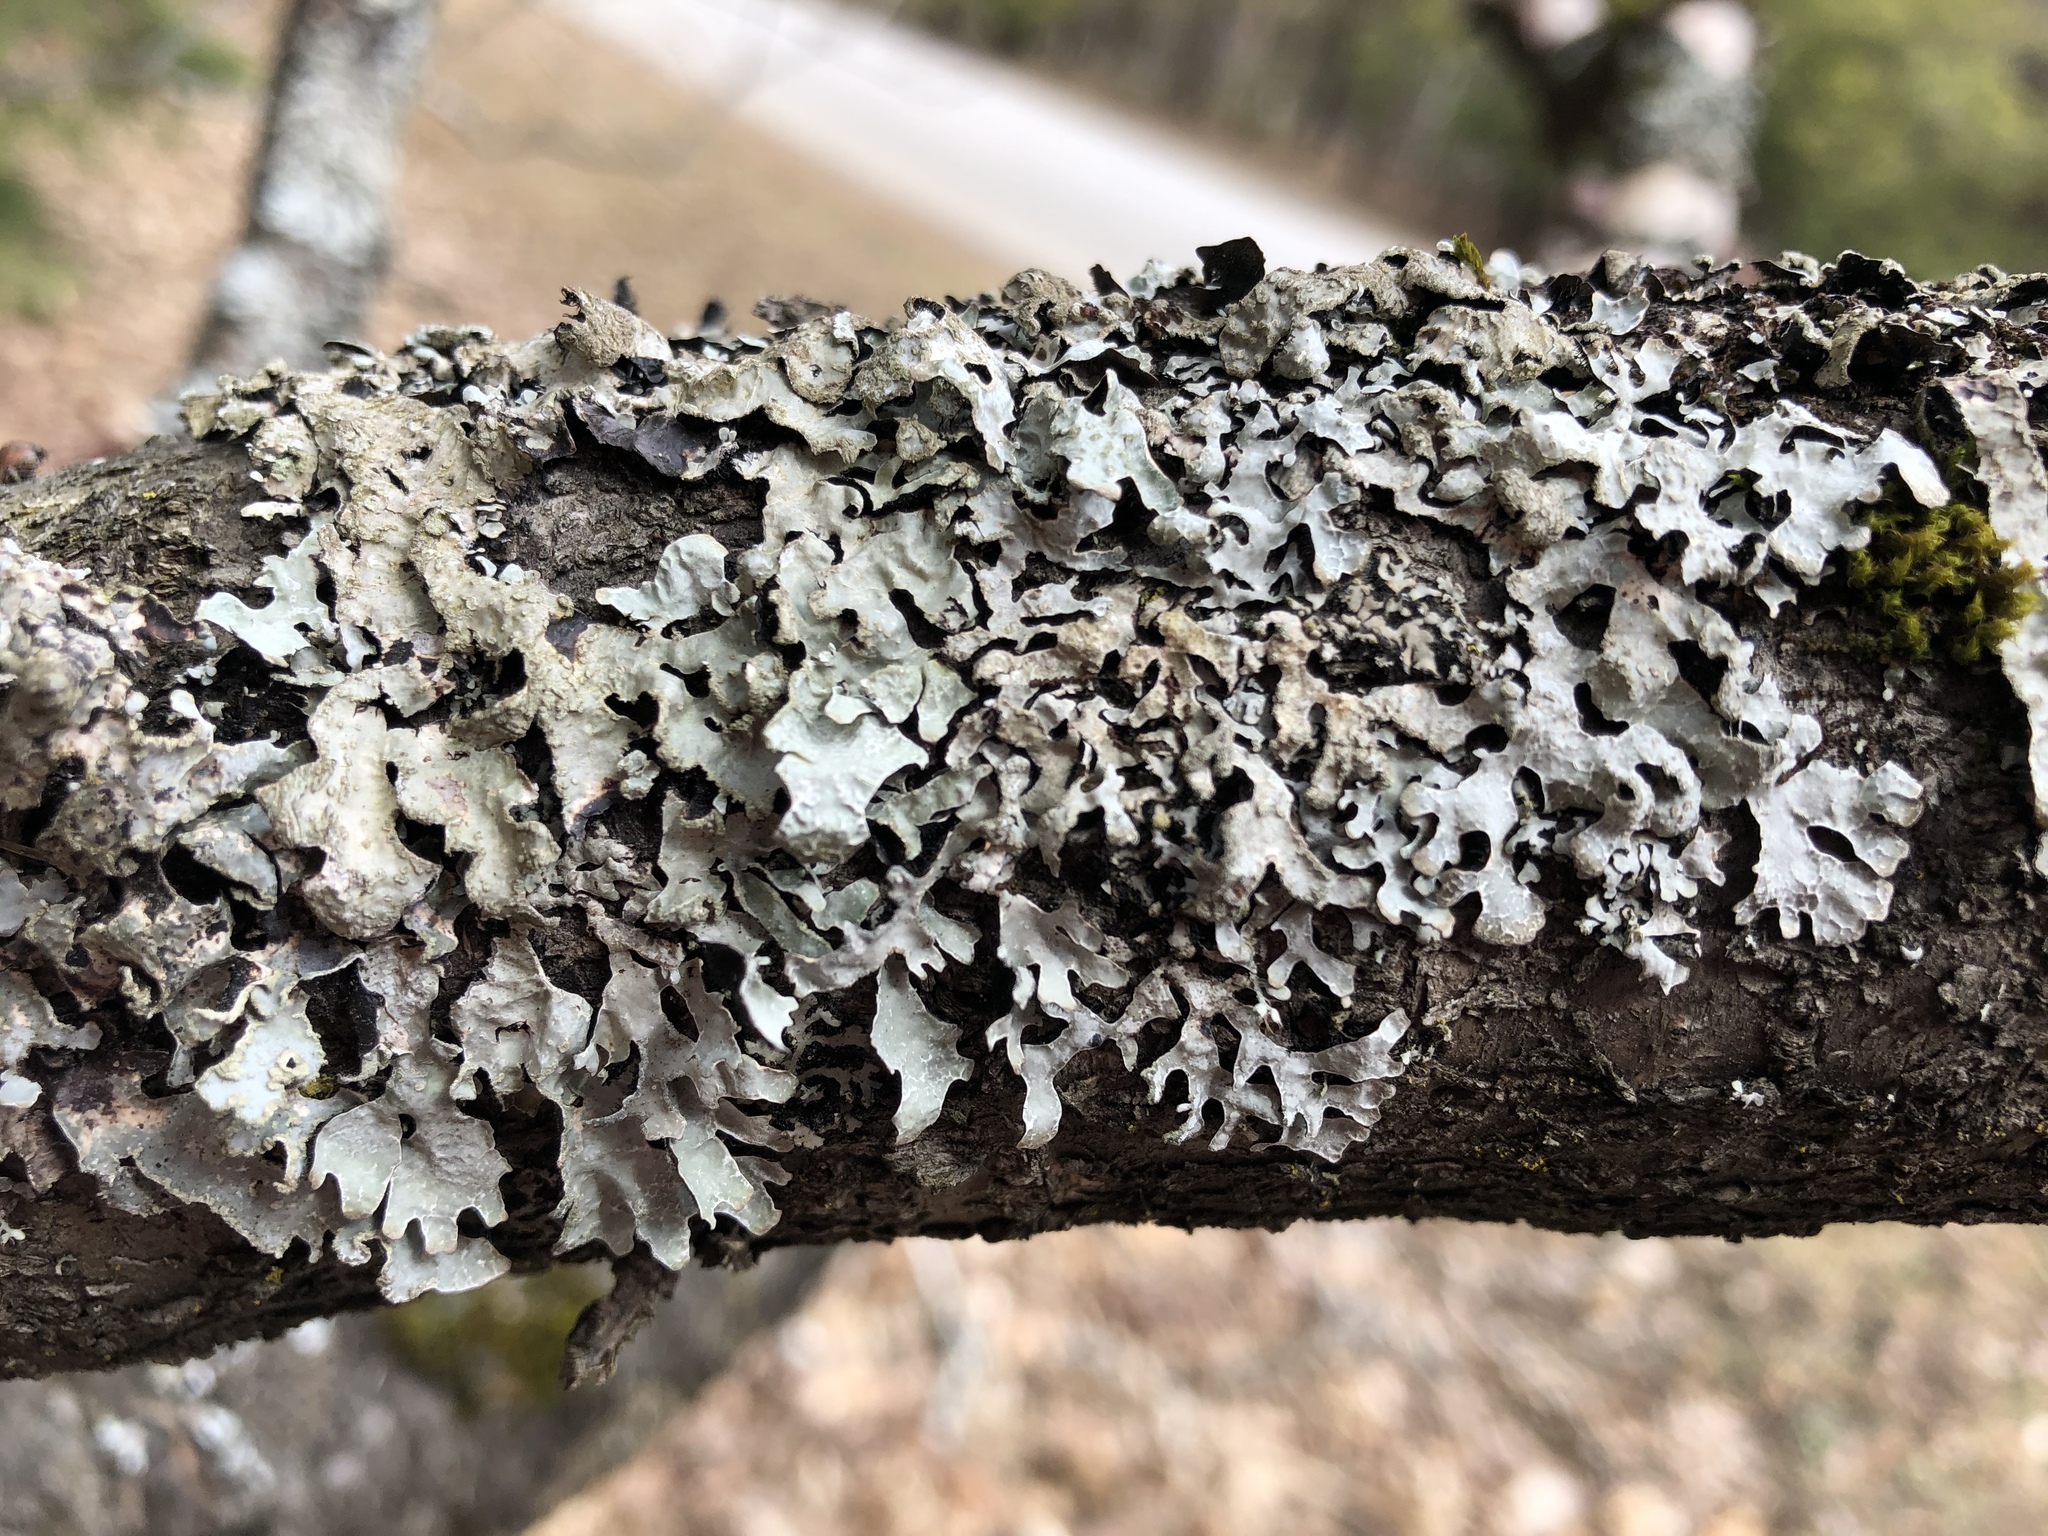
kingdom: Fungi
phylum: Ascomycota
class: Lecanoromycetes
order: Lecanorales
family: Parmeliaceae
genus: Parmelia
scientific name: Parmelia sulcata
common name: Netted shield lichen
